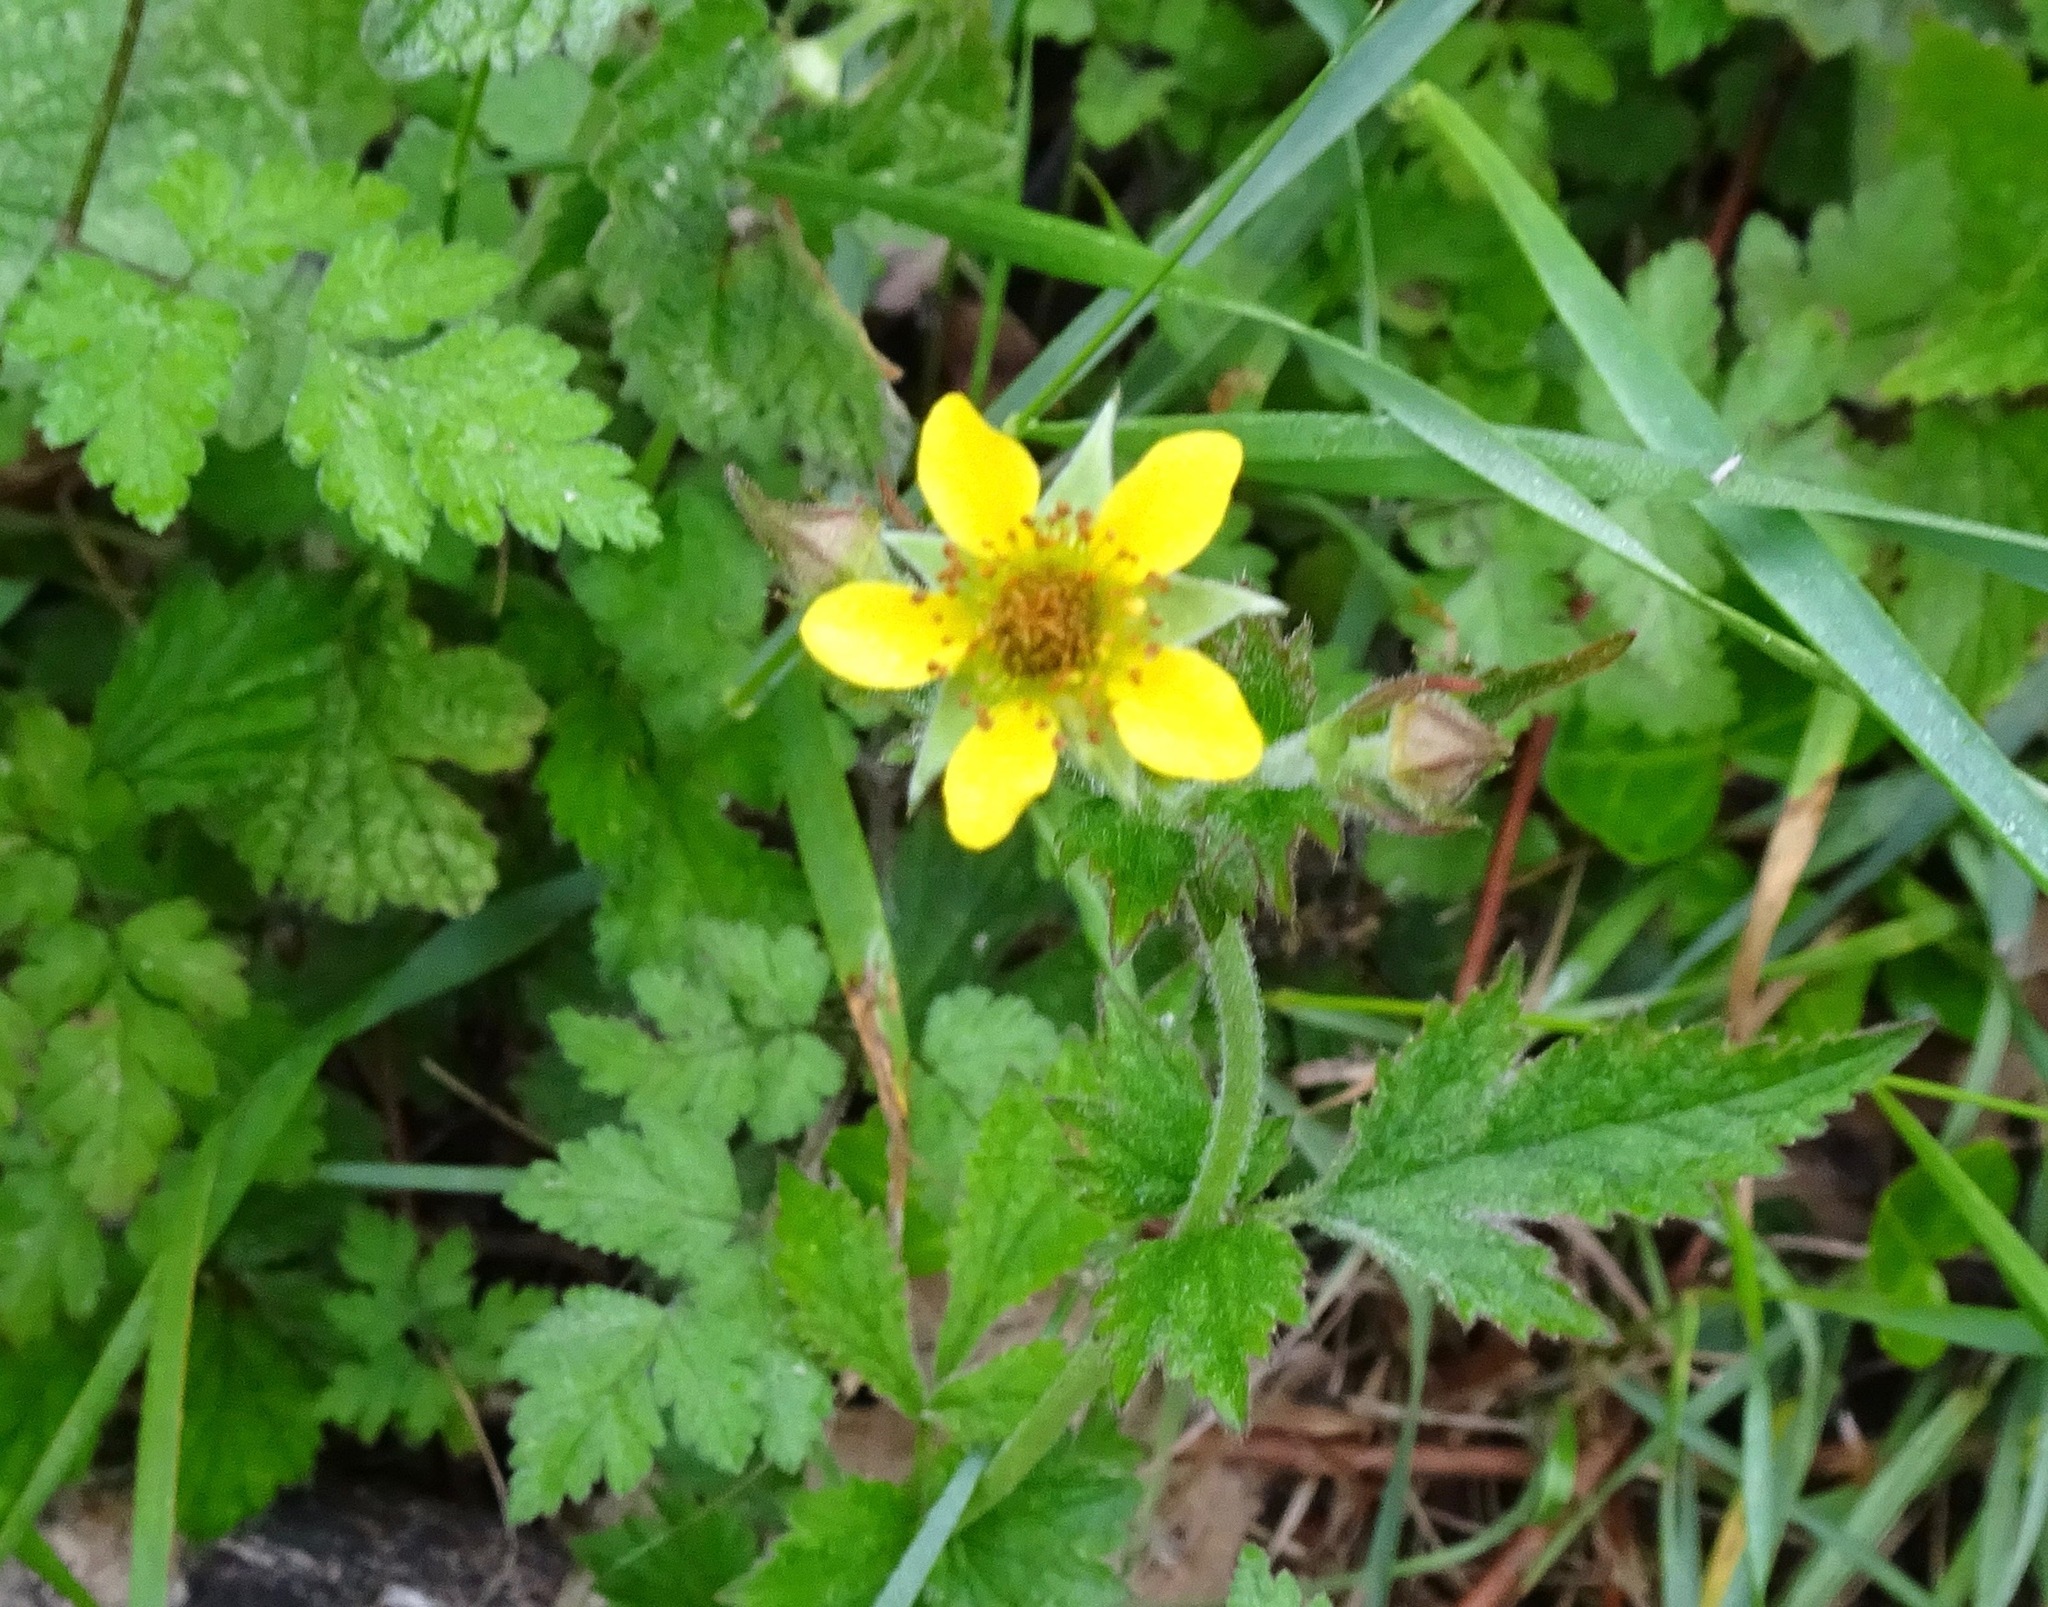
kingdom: Plantae
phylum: Tracheophyta
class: Magnoliopsida
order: Rosales
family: Rosaceae
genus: Geum
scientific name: Geum urbanum
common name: Wood avens
